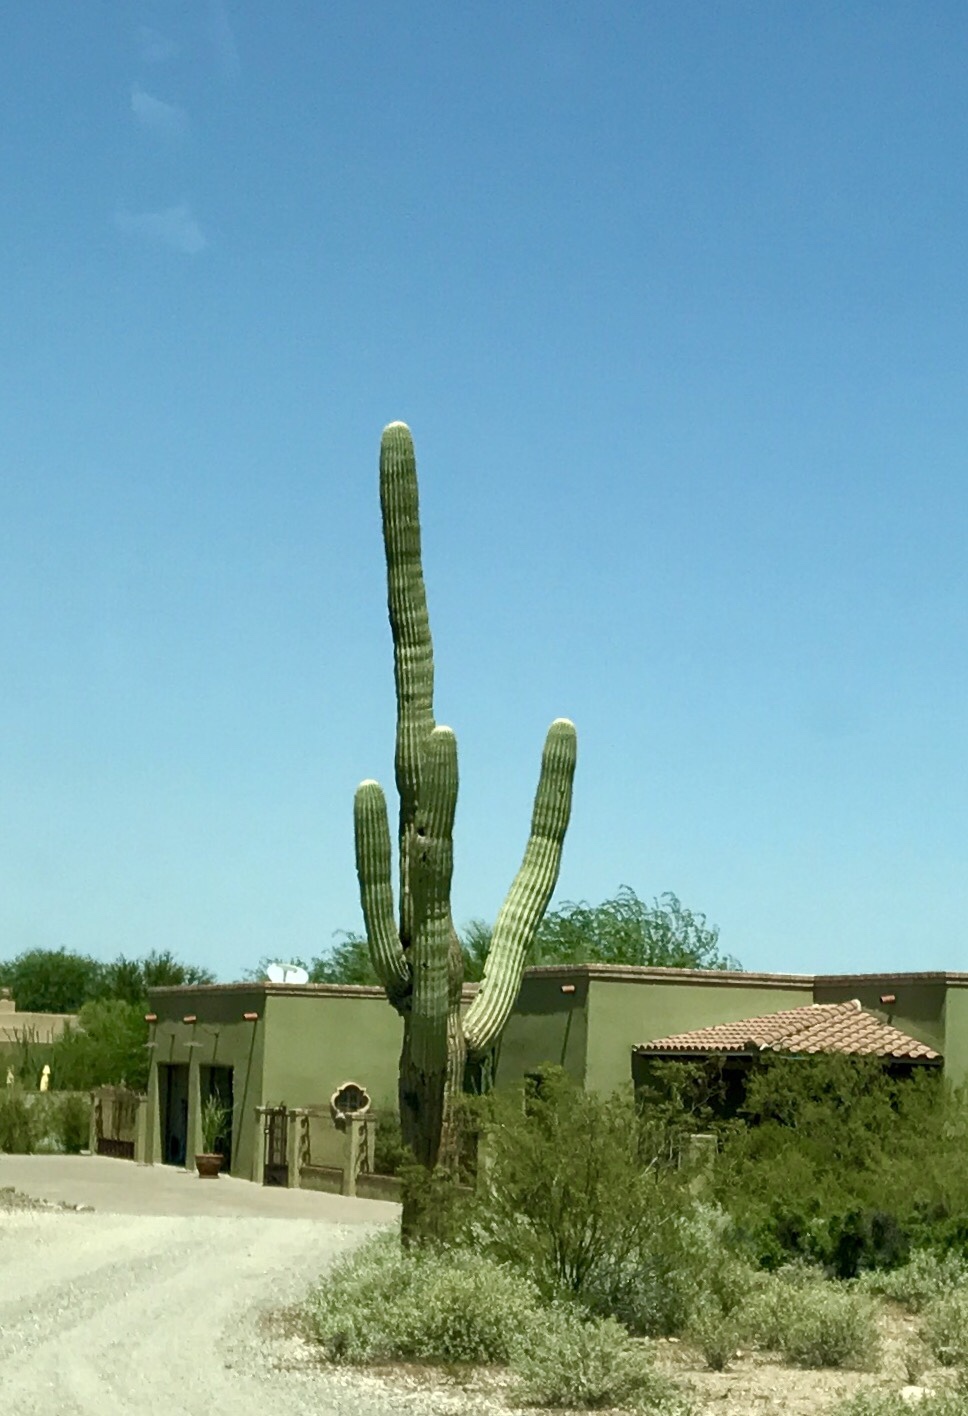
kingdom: Plantae
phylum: Tracheophyta
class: Magnoliopsida
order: Caryophyllales
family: Cactaceae
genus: Carnegiea
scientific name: Carnegiea gigantea
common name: Saguaro
